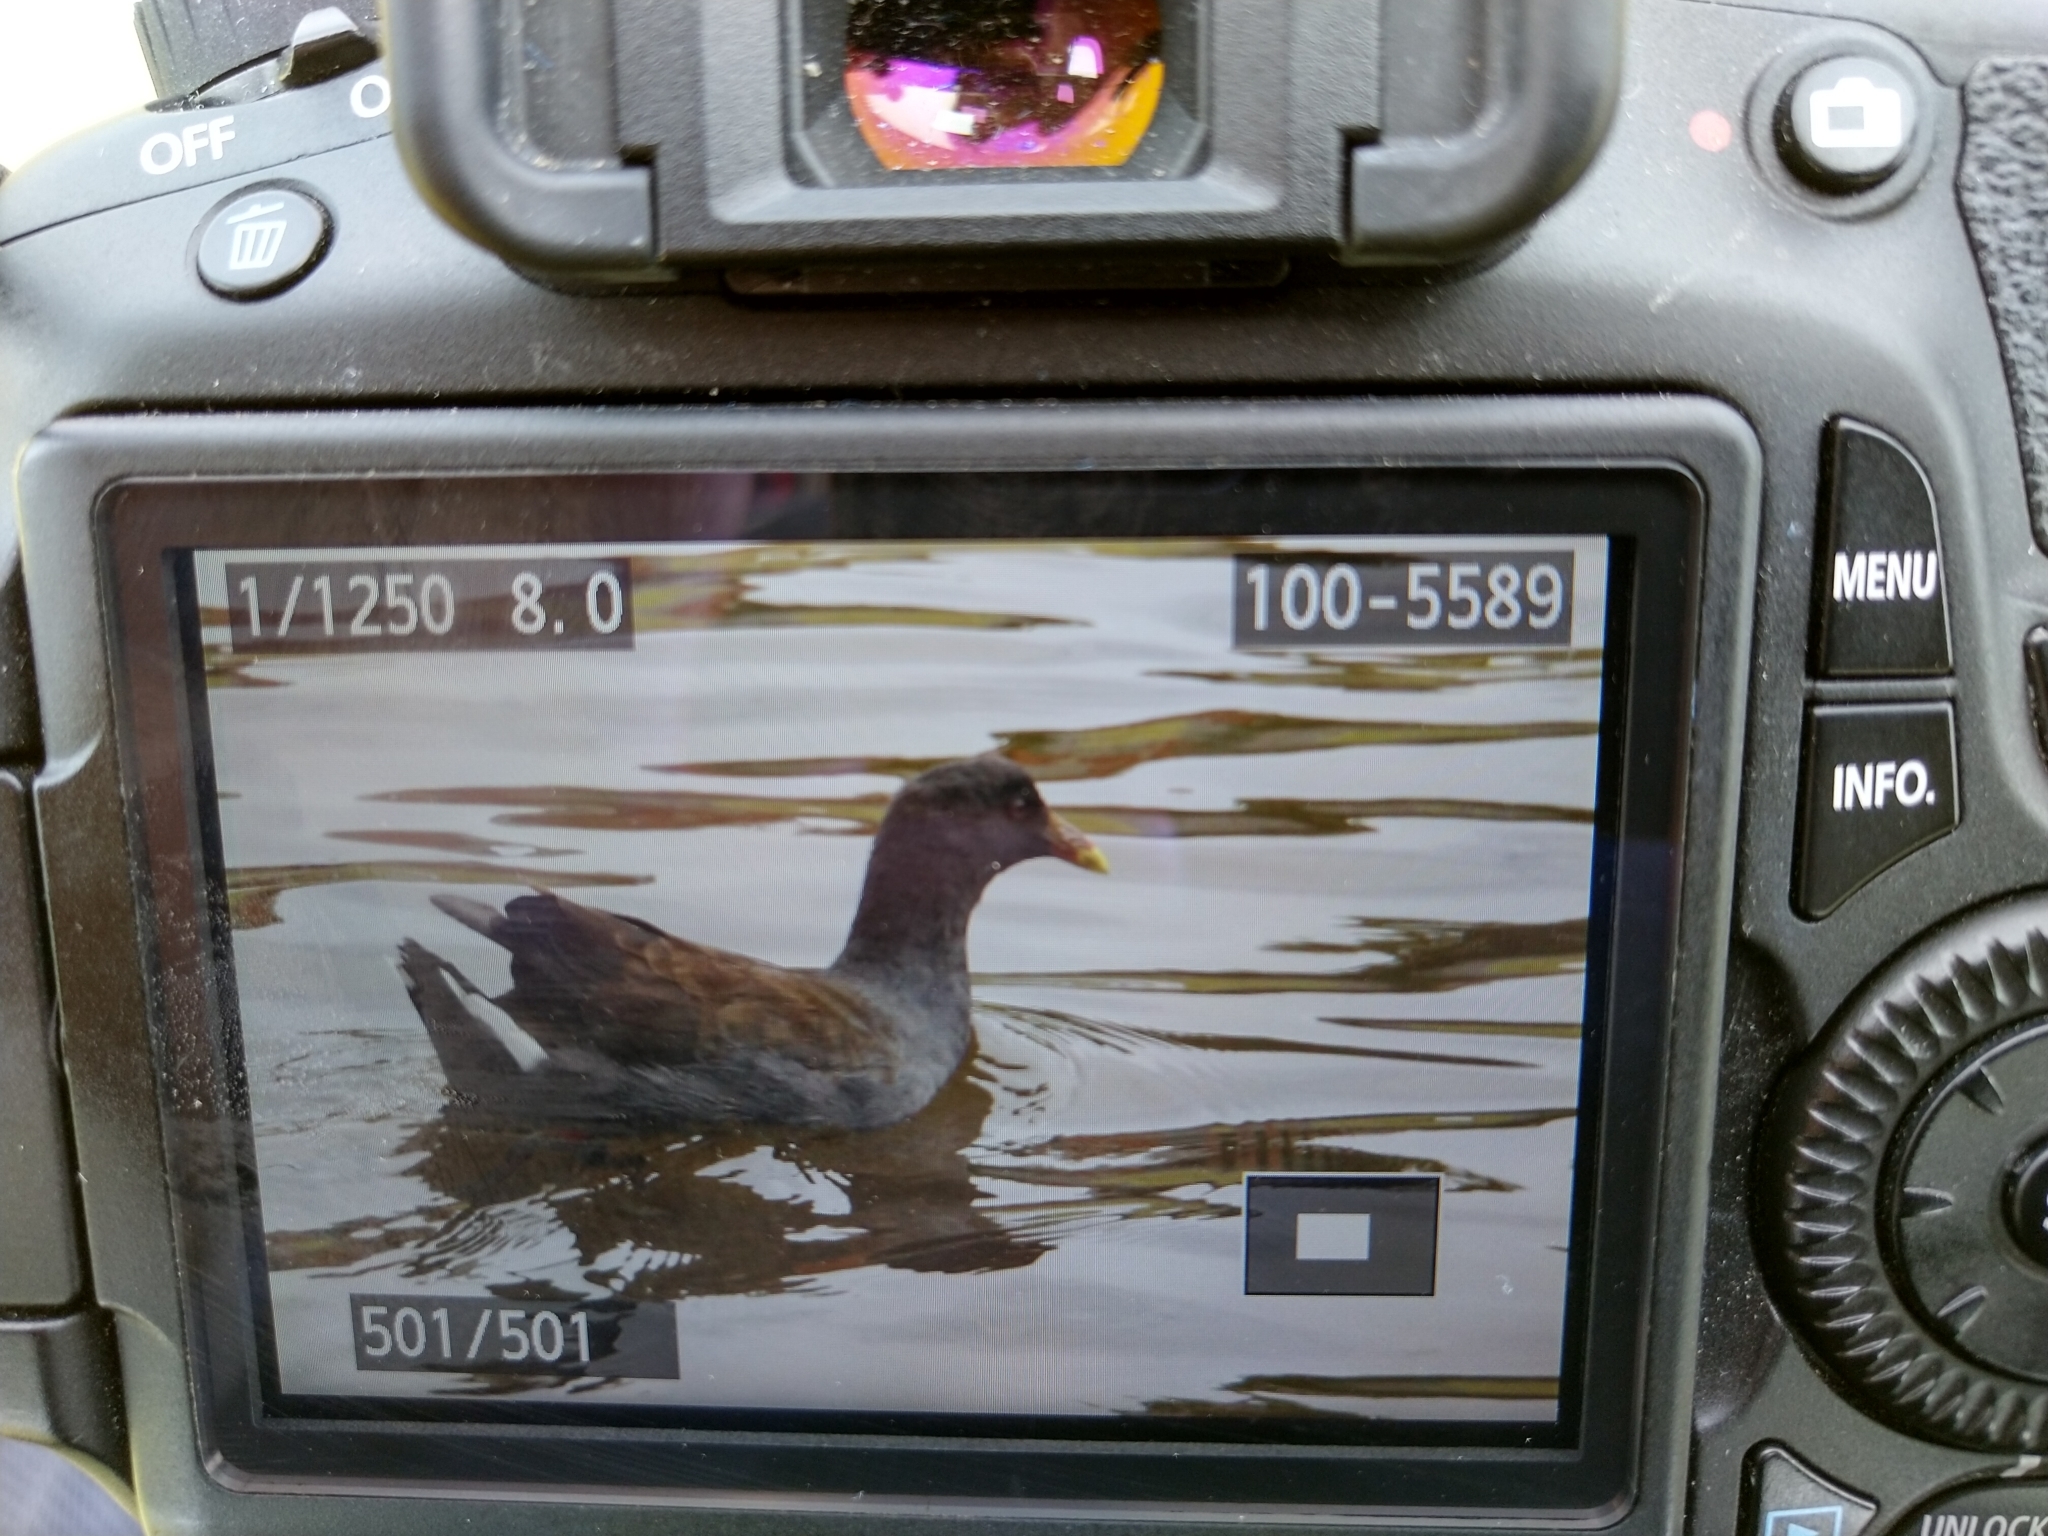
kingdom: Animalia
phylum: Chordata
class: Aves
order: Gruiformes
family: Rallidae
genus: Gallinula
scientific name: Gallinula tenebrosa
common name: Dusky moorhen
